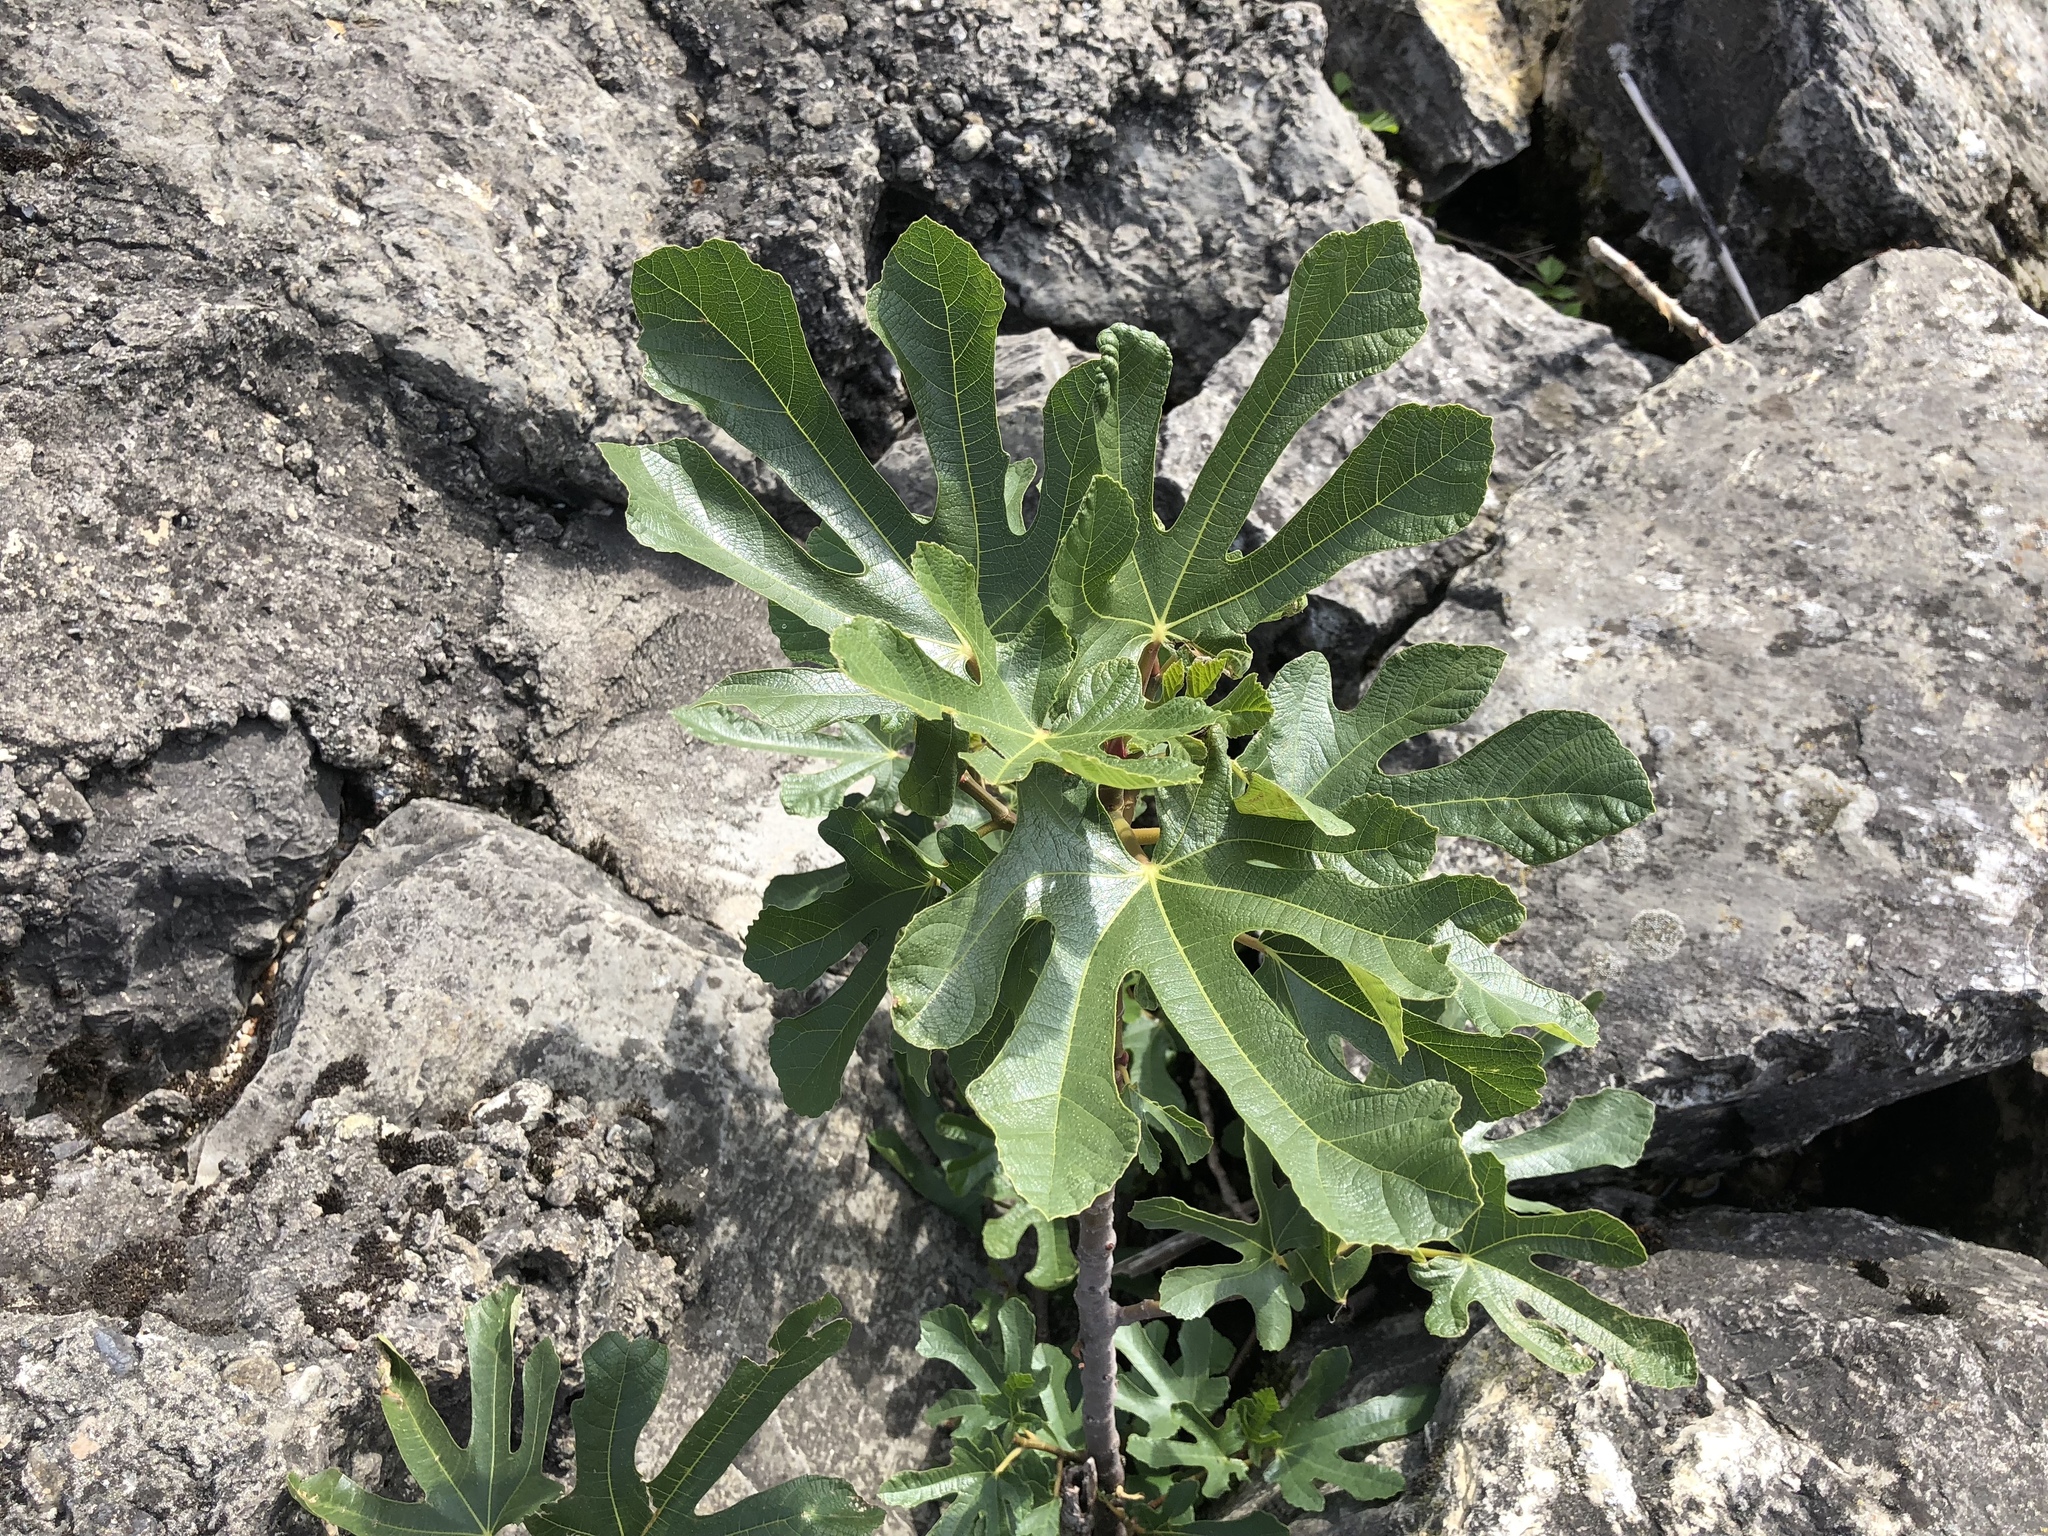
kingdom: Plantae
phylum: Tracheophyta
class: Magnoliopsida
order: Rosales
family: Moraceae
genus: Ficus
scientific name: Ficus carica
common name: Fig
